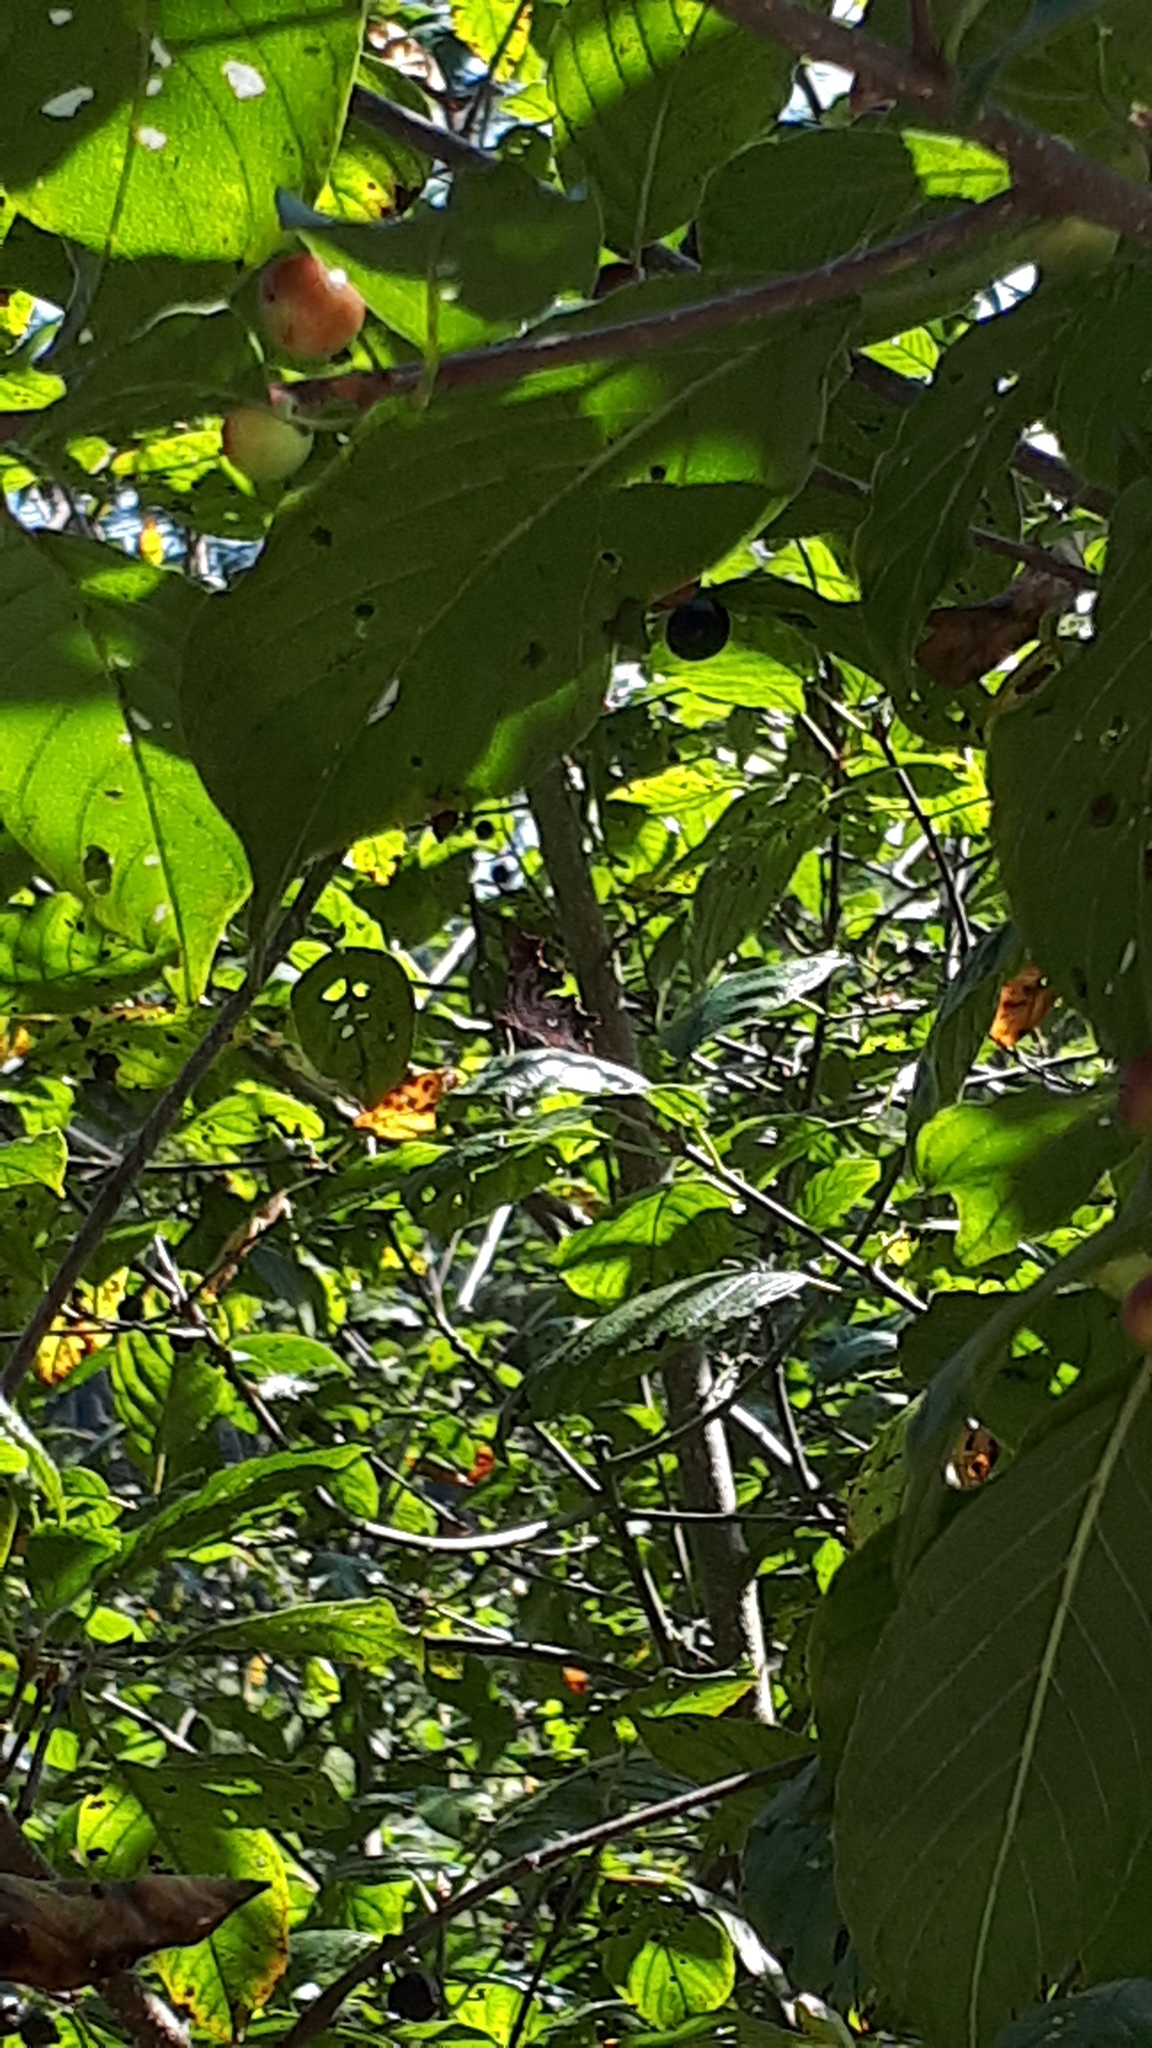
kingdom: Animalia
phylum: Arthropoda
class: Insecta
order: Lepidoptera
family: Nymphalidae
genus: Polygonia
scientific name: Polygonia c-album
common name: Comma
